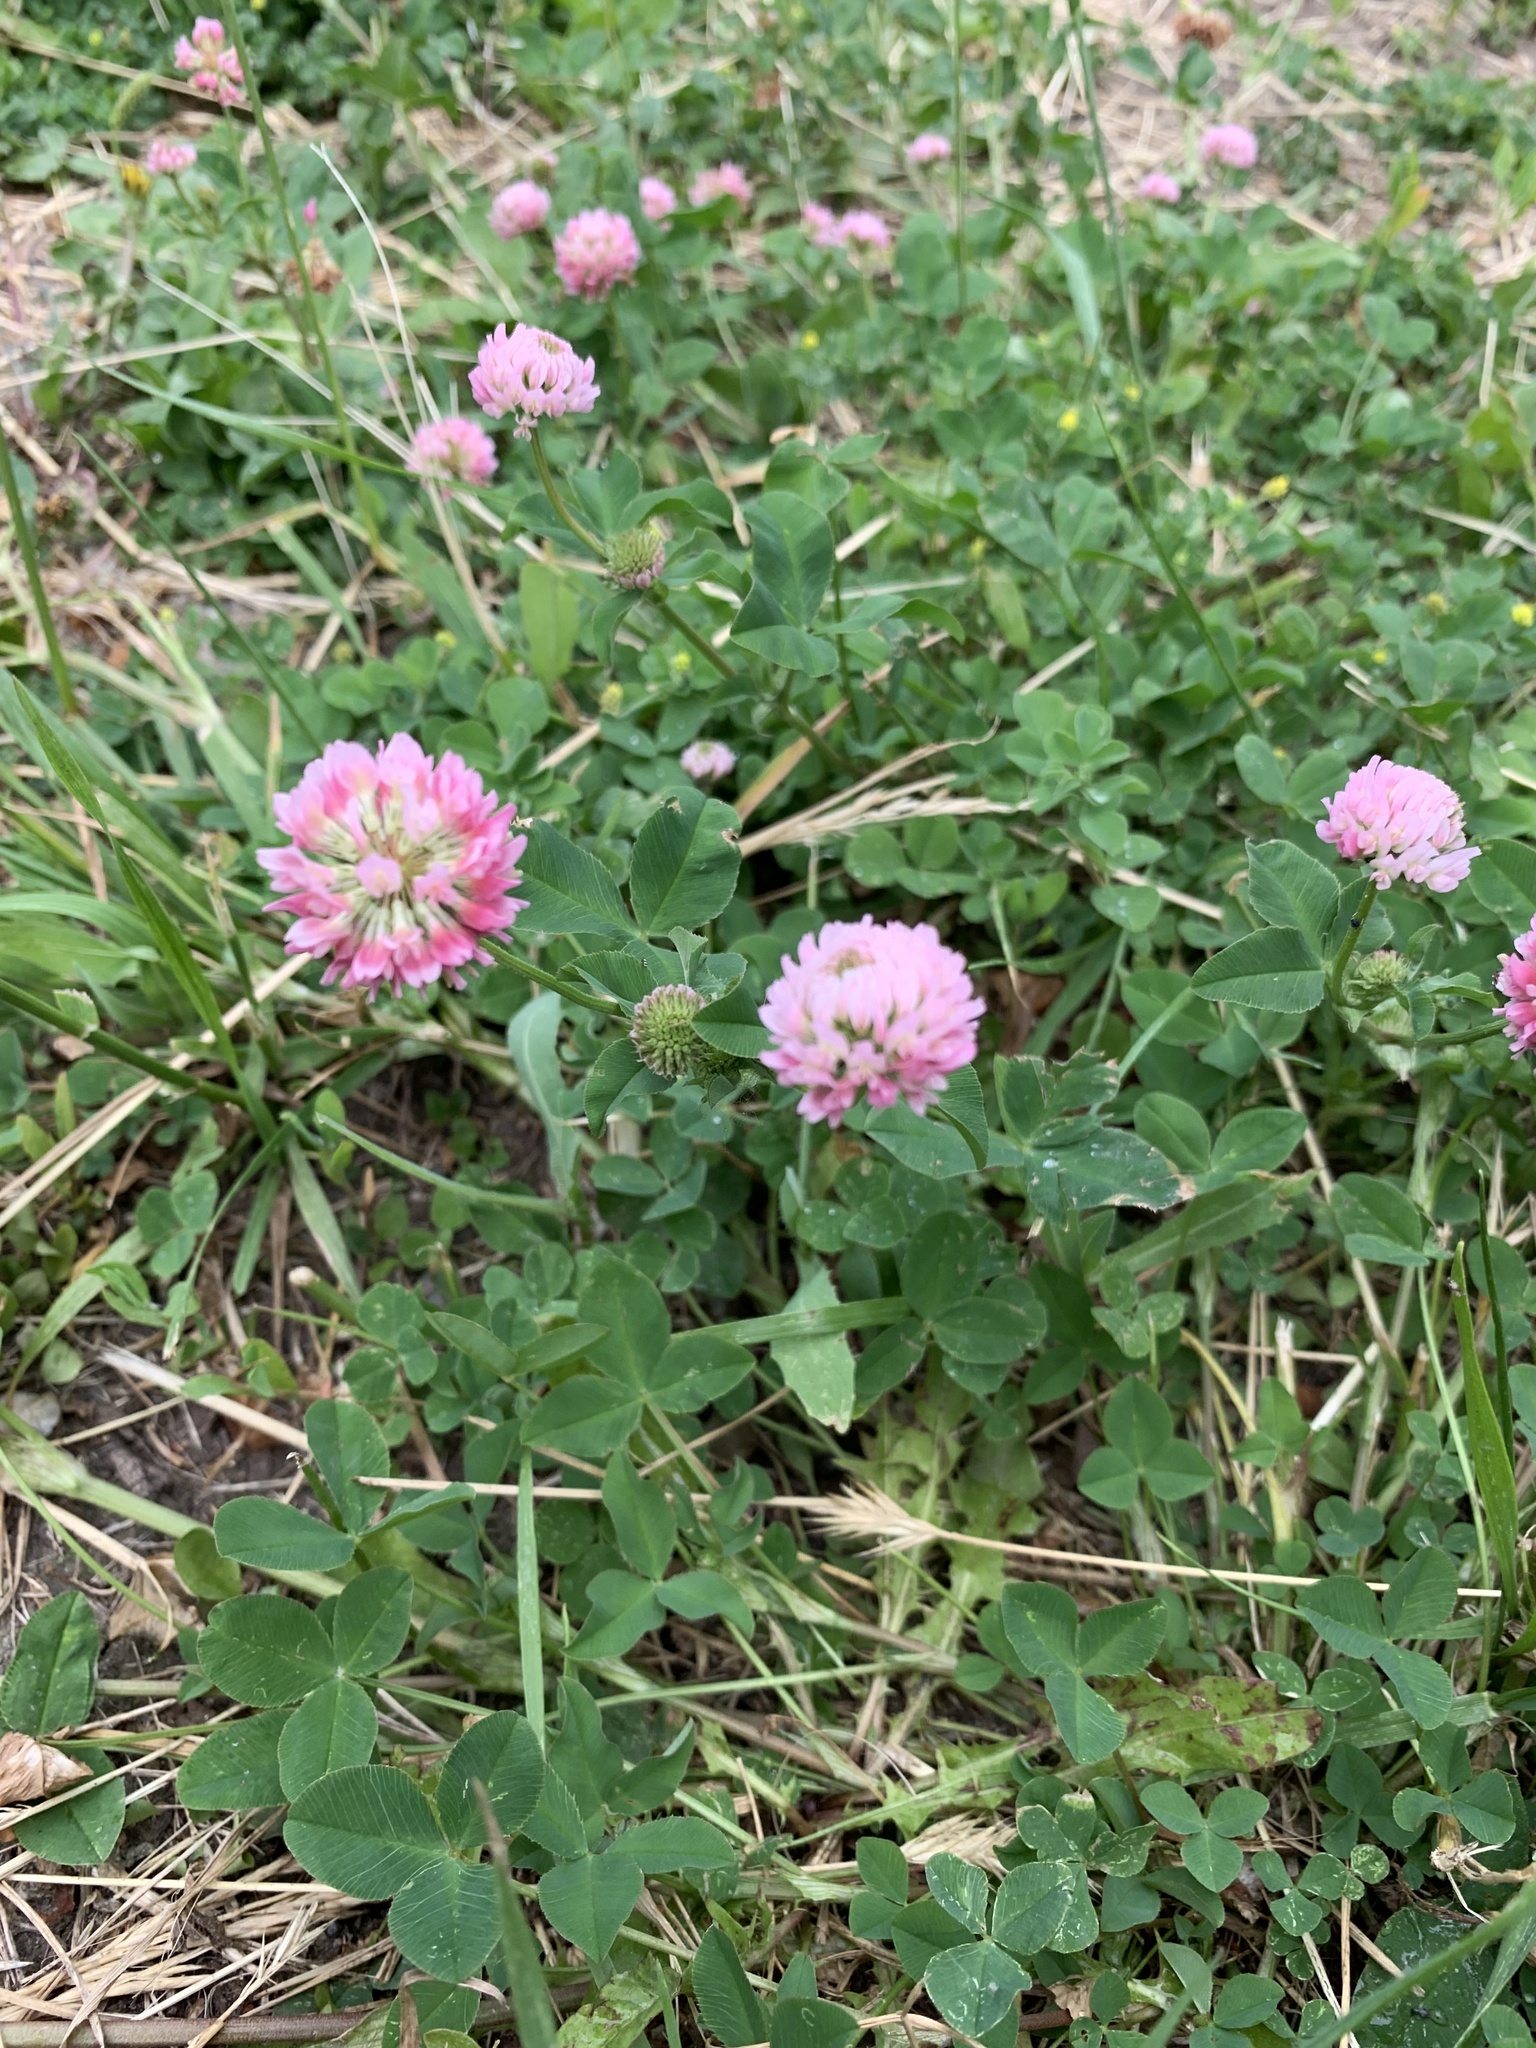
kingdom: Plantae
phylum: Tracheophyta
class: Magnoliopsida
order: Fabales
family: Fabaceae
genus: Trifolium
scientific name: Trifolium hybridum
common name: Alsike clover
